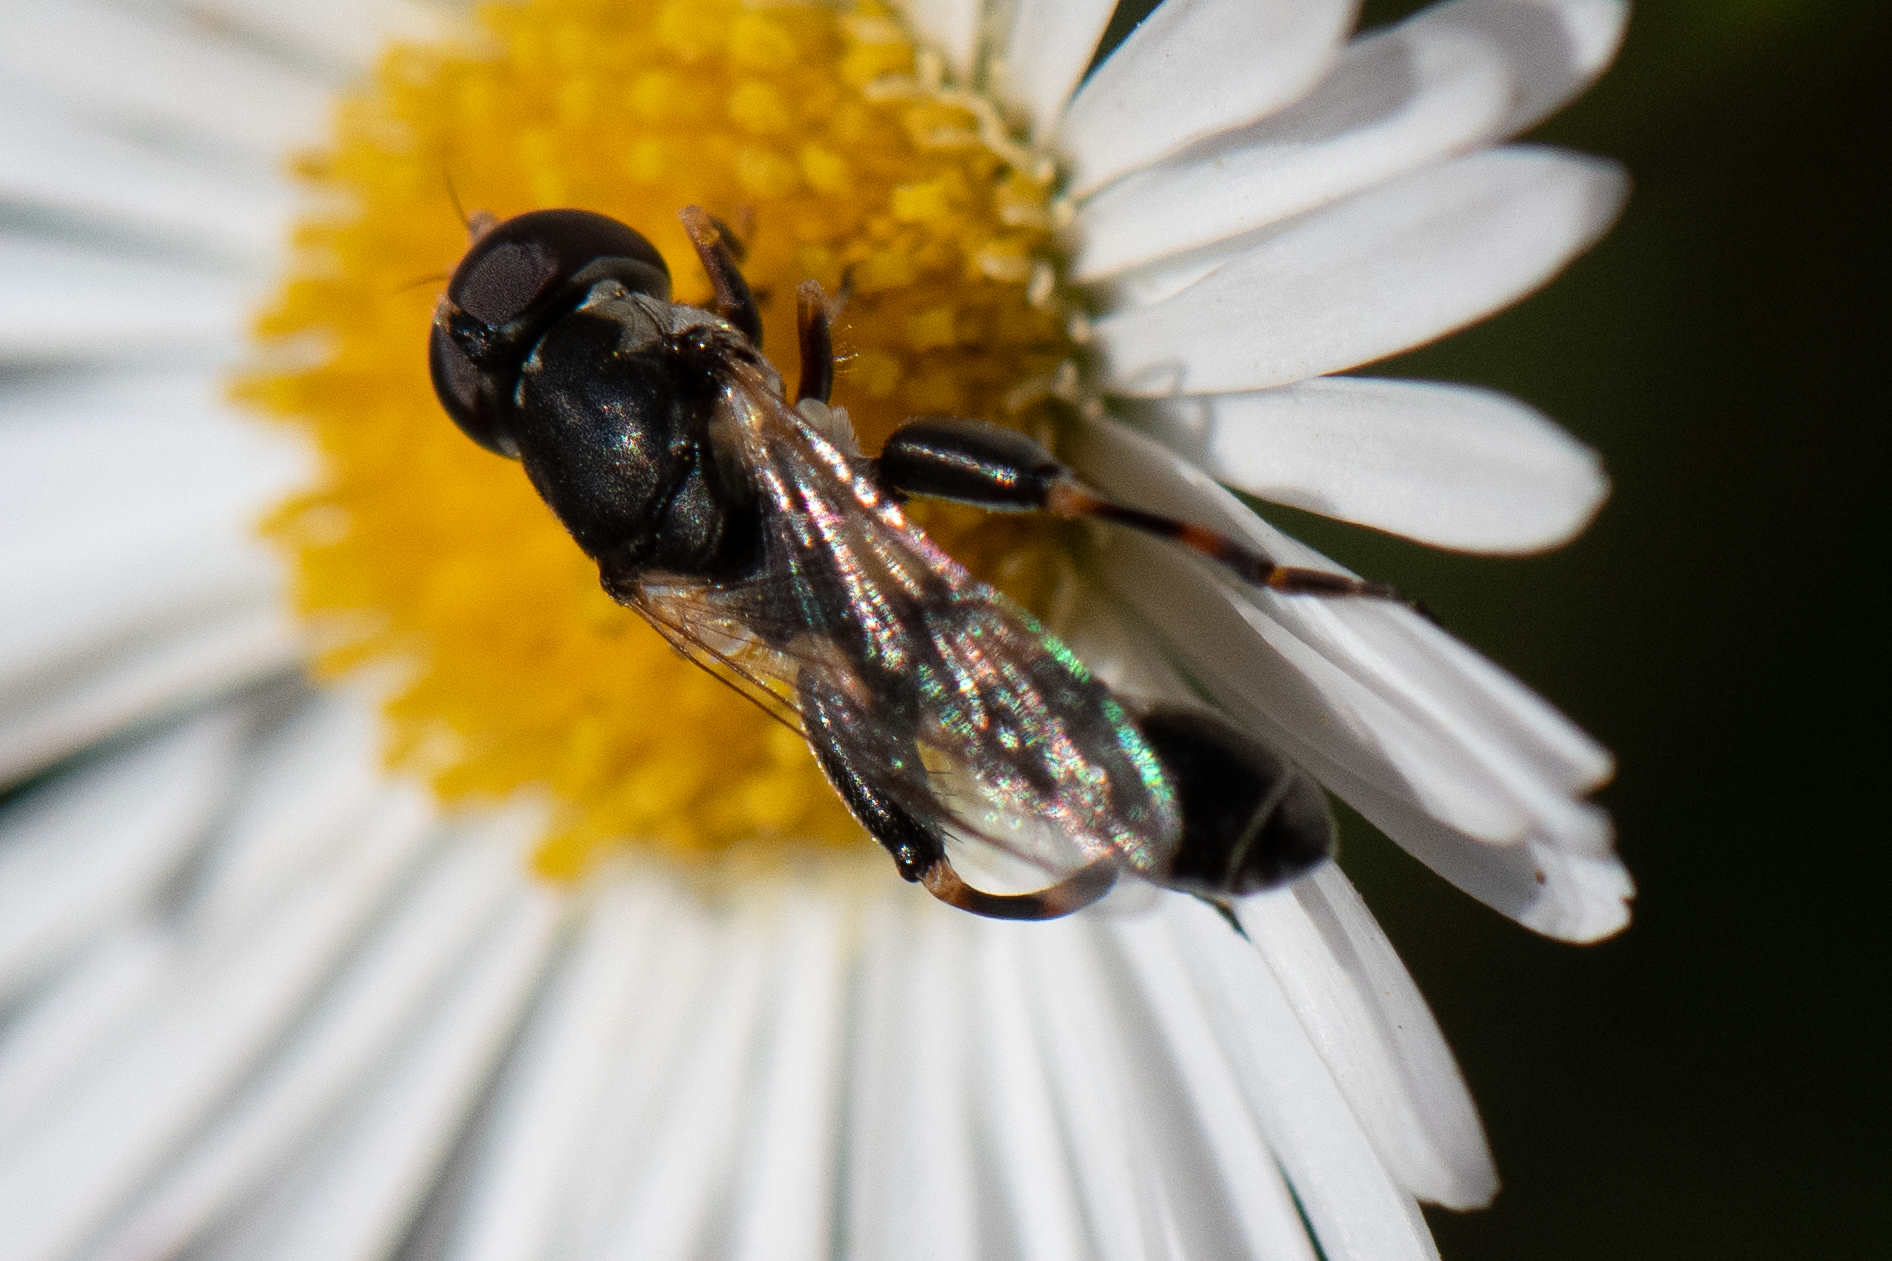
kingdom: Animalia
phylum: Arthropoda
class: Insecta
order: Diptera
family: Syrphidae
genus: Syritta
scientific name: Syritta pipiens
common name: Hover fly
